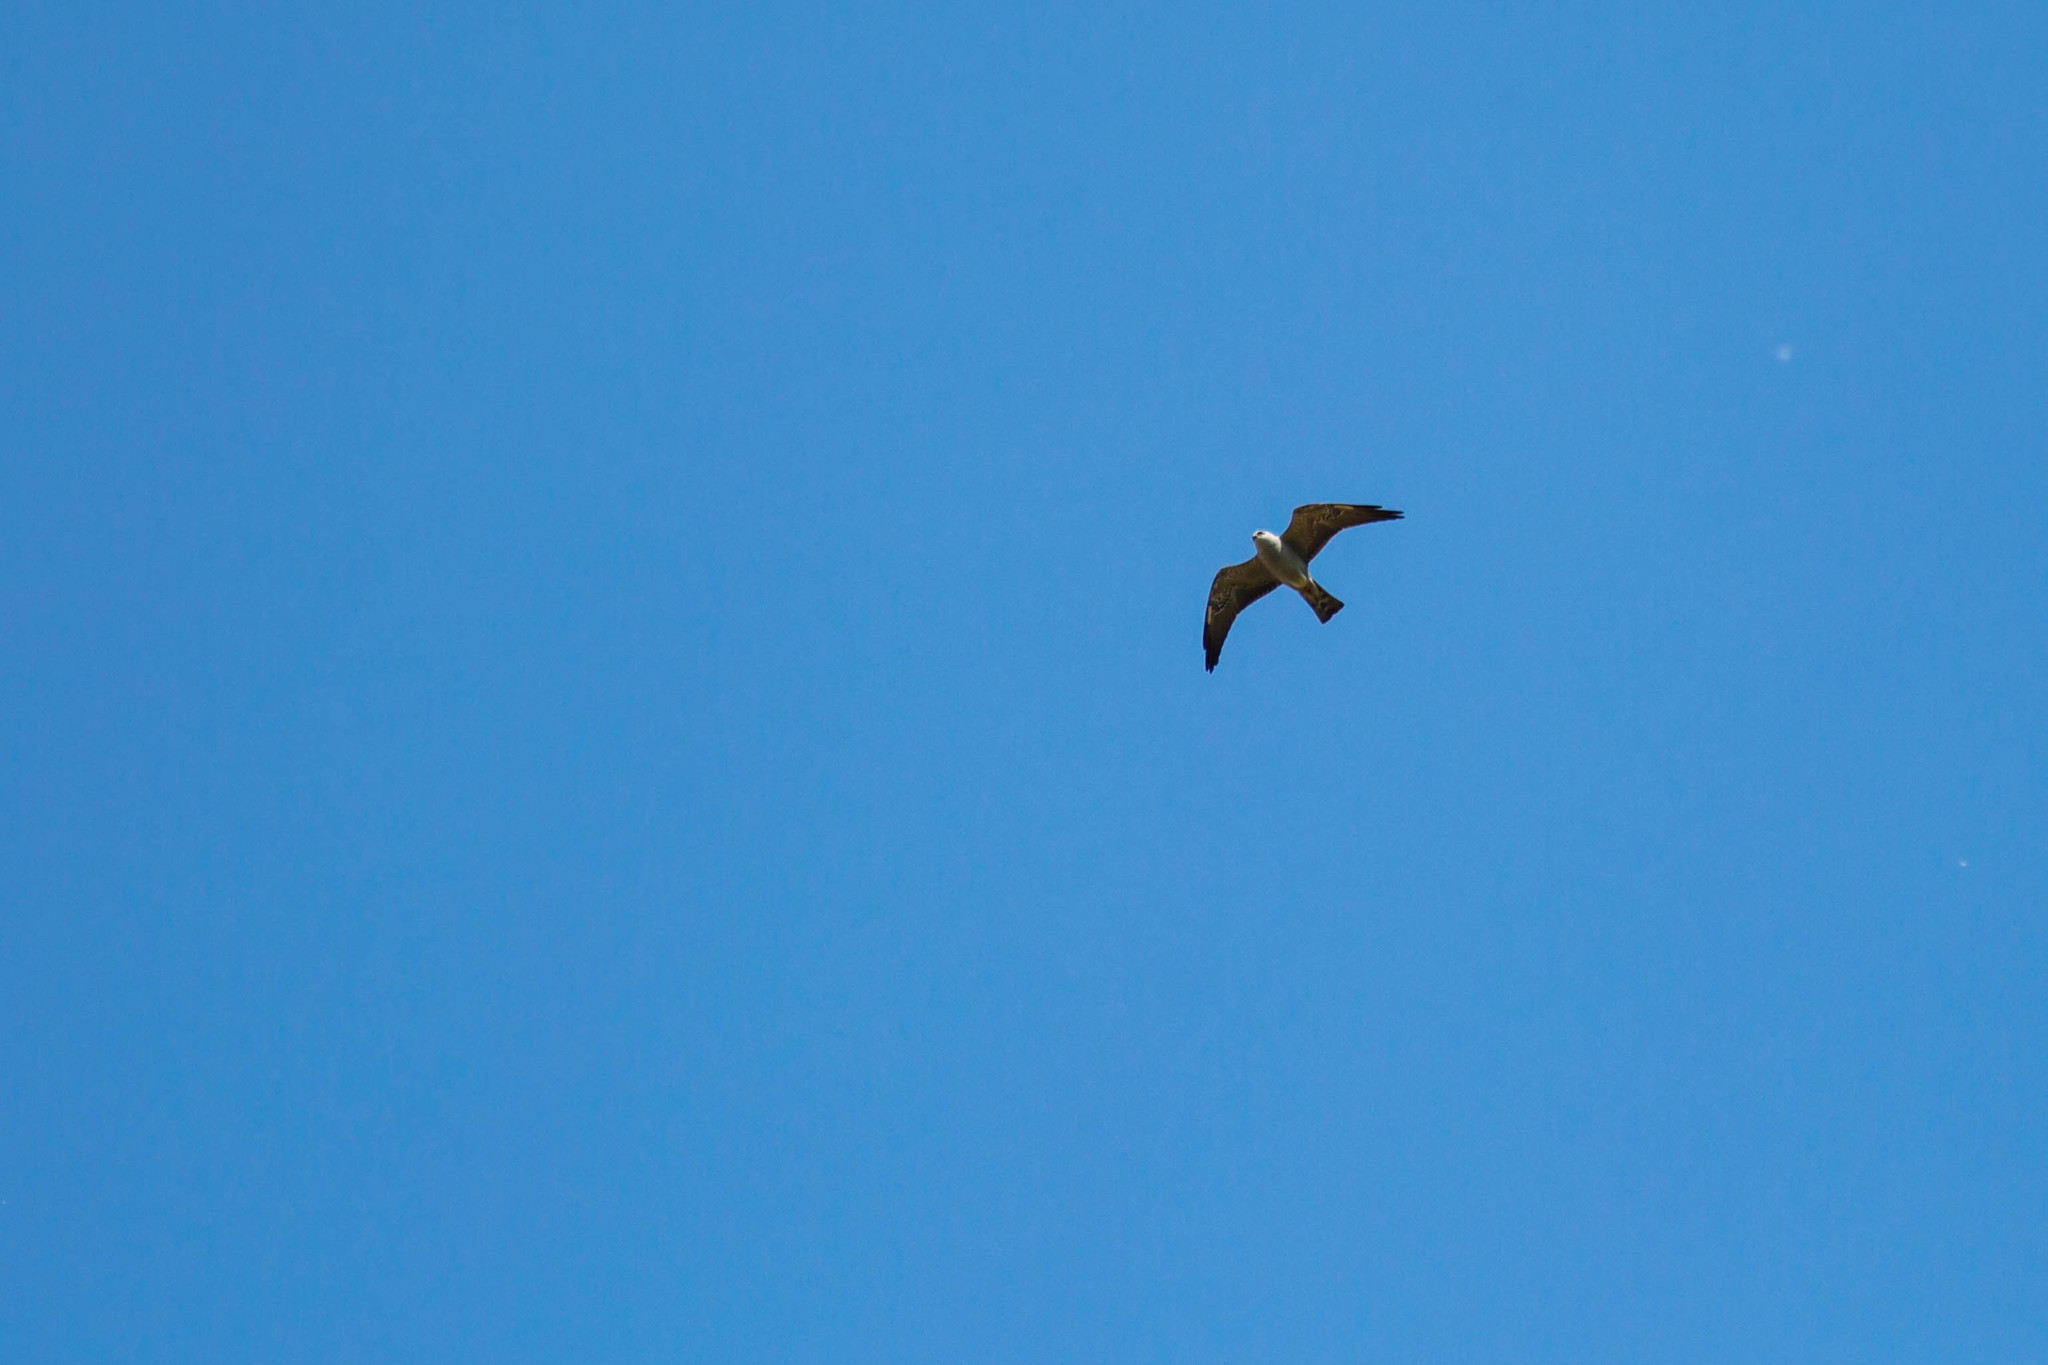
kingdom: Animalia
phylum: Chordata
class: Aves
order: Accipitriformes
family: Accipitridae
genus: Ictinia
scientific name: Ictinia mississippiensis
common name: Mississippi kite
